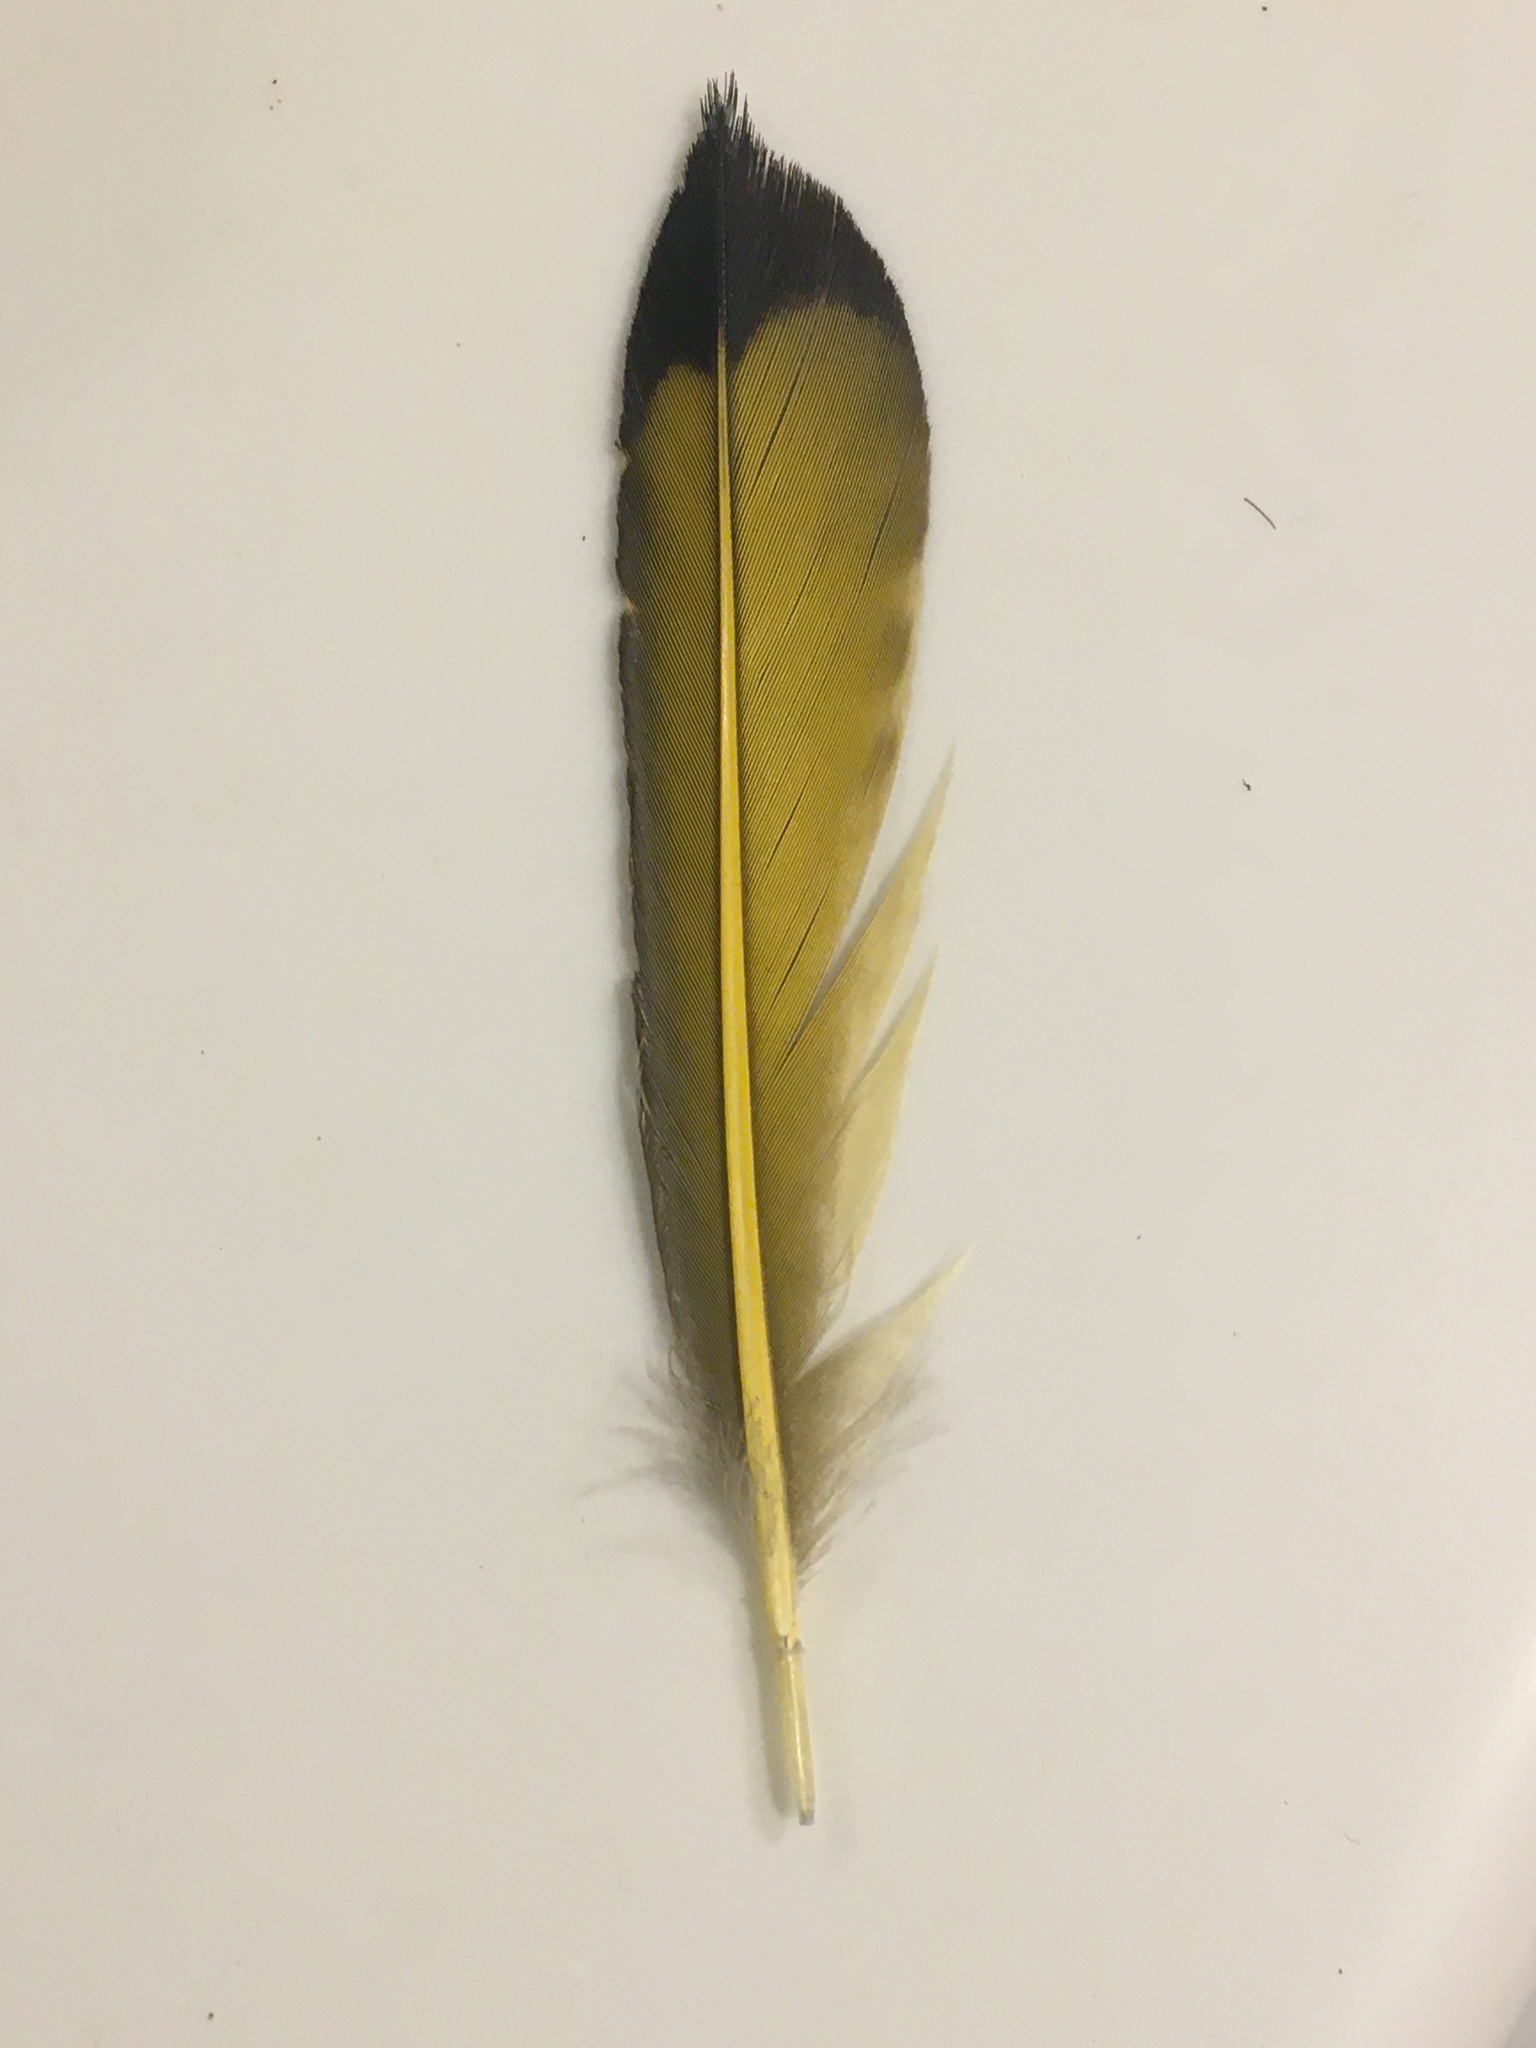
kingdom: Animalia
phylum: Chordata
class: Aves
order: Piciformes
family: Picidae
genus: Colaptes
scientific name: Colaptes auratus
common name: Northern flicker
